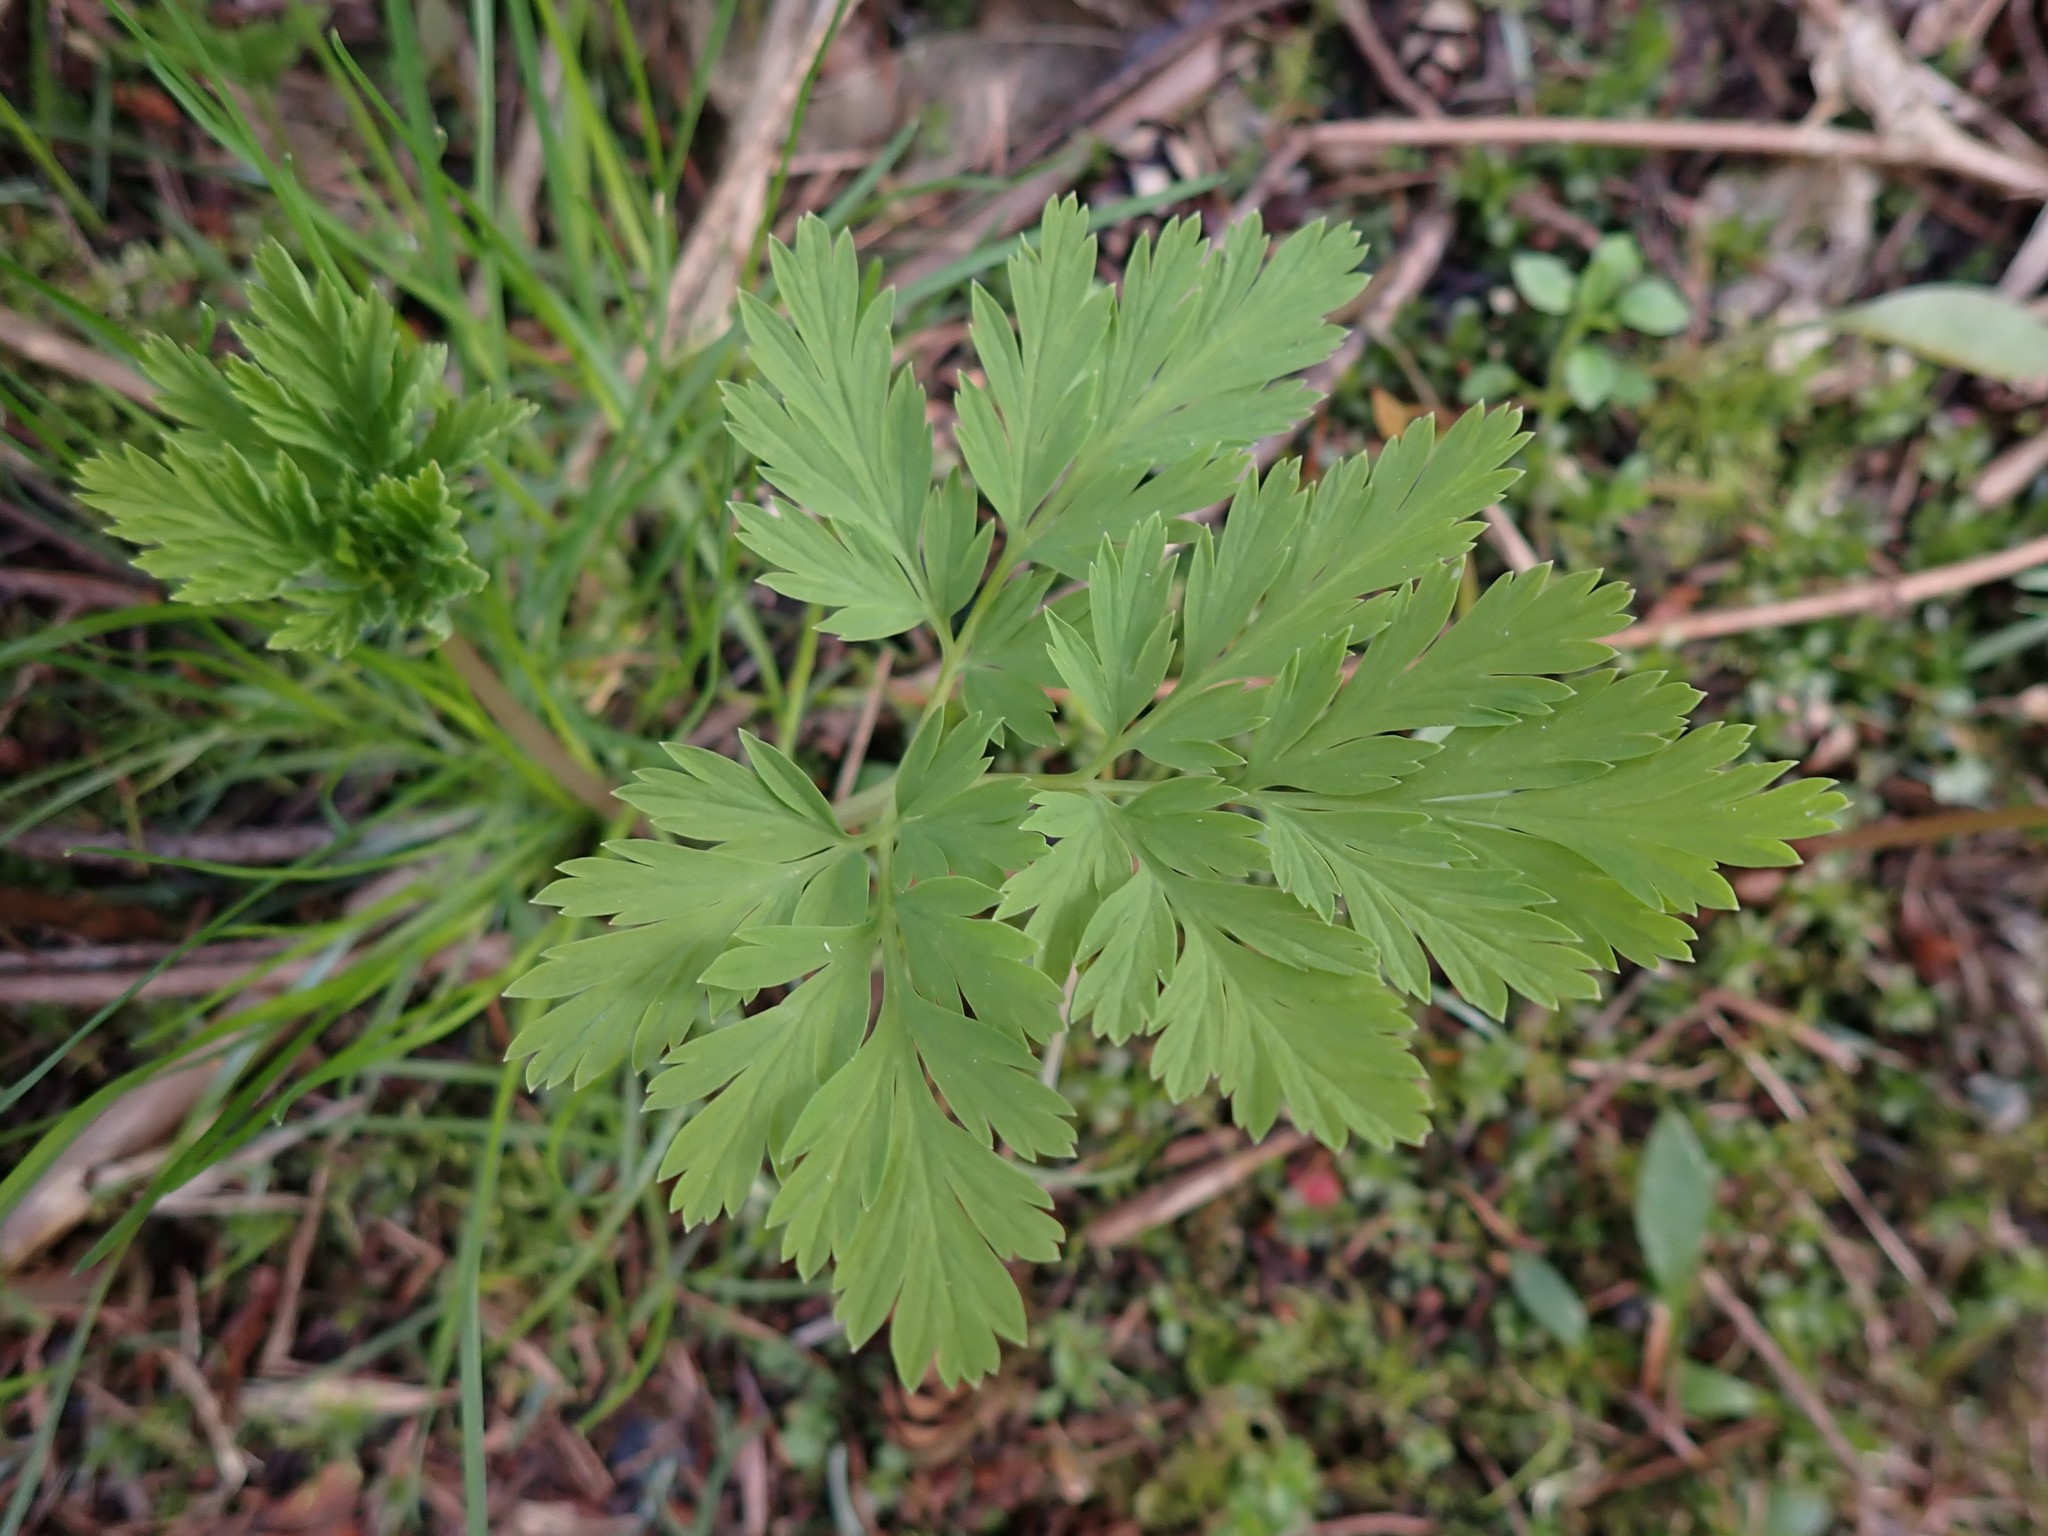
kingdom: Plantae
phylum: Tracheophyta
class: Magnoliopsida
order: Ranunculales
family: Papaveraceae
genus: Dicentra
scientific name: Dicentra formosa
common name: Bleeding-heart
